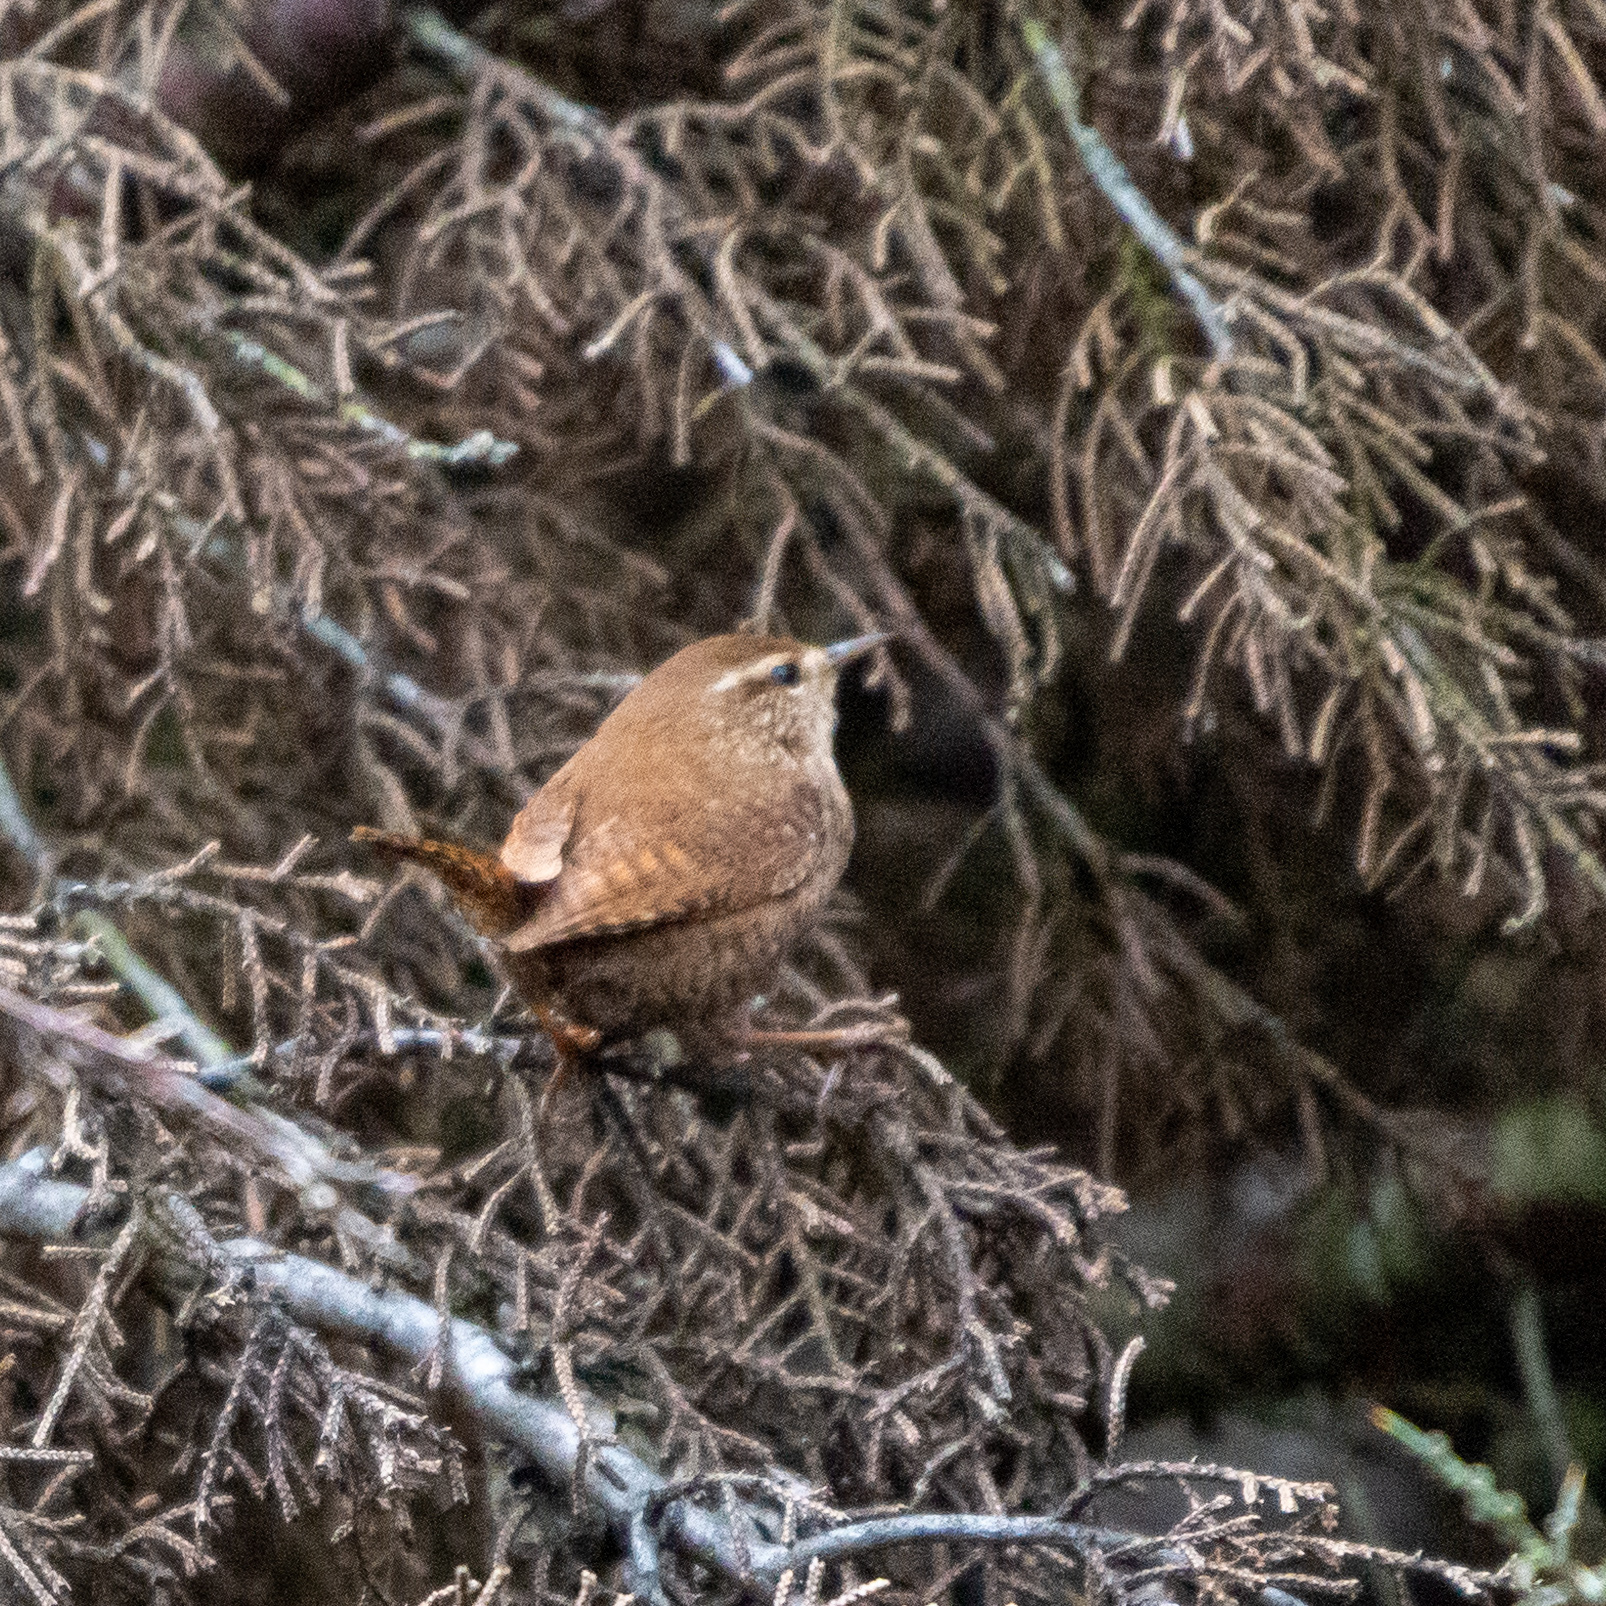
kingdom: Animalia
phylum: Chordata
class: Aves
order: Passeriformes
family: Troglodytidae
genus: Troglodytes
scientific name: Troglodytes troglodytes
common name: Eurasian wren
